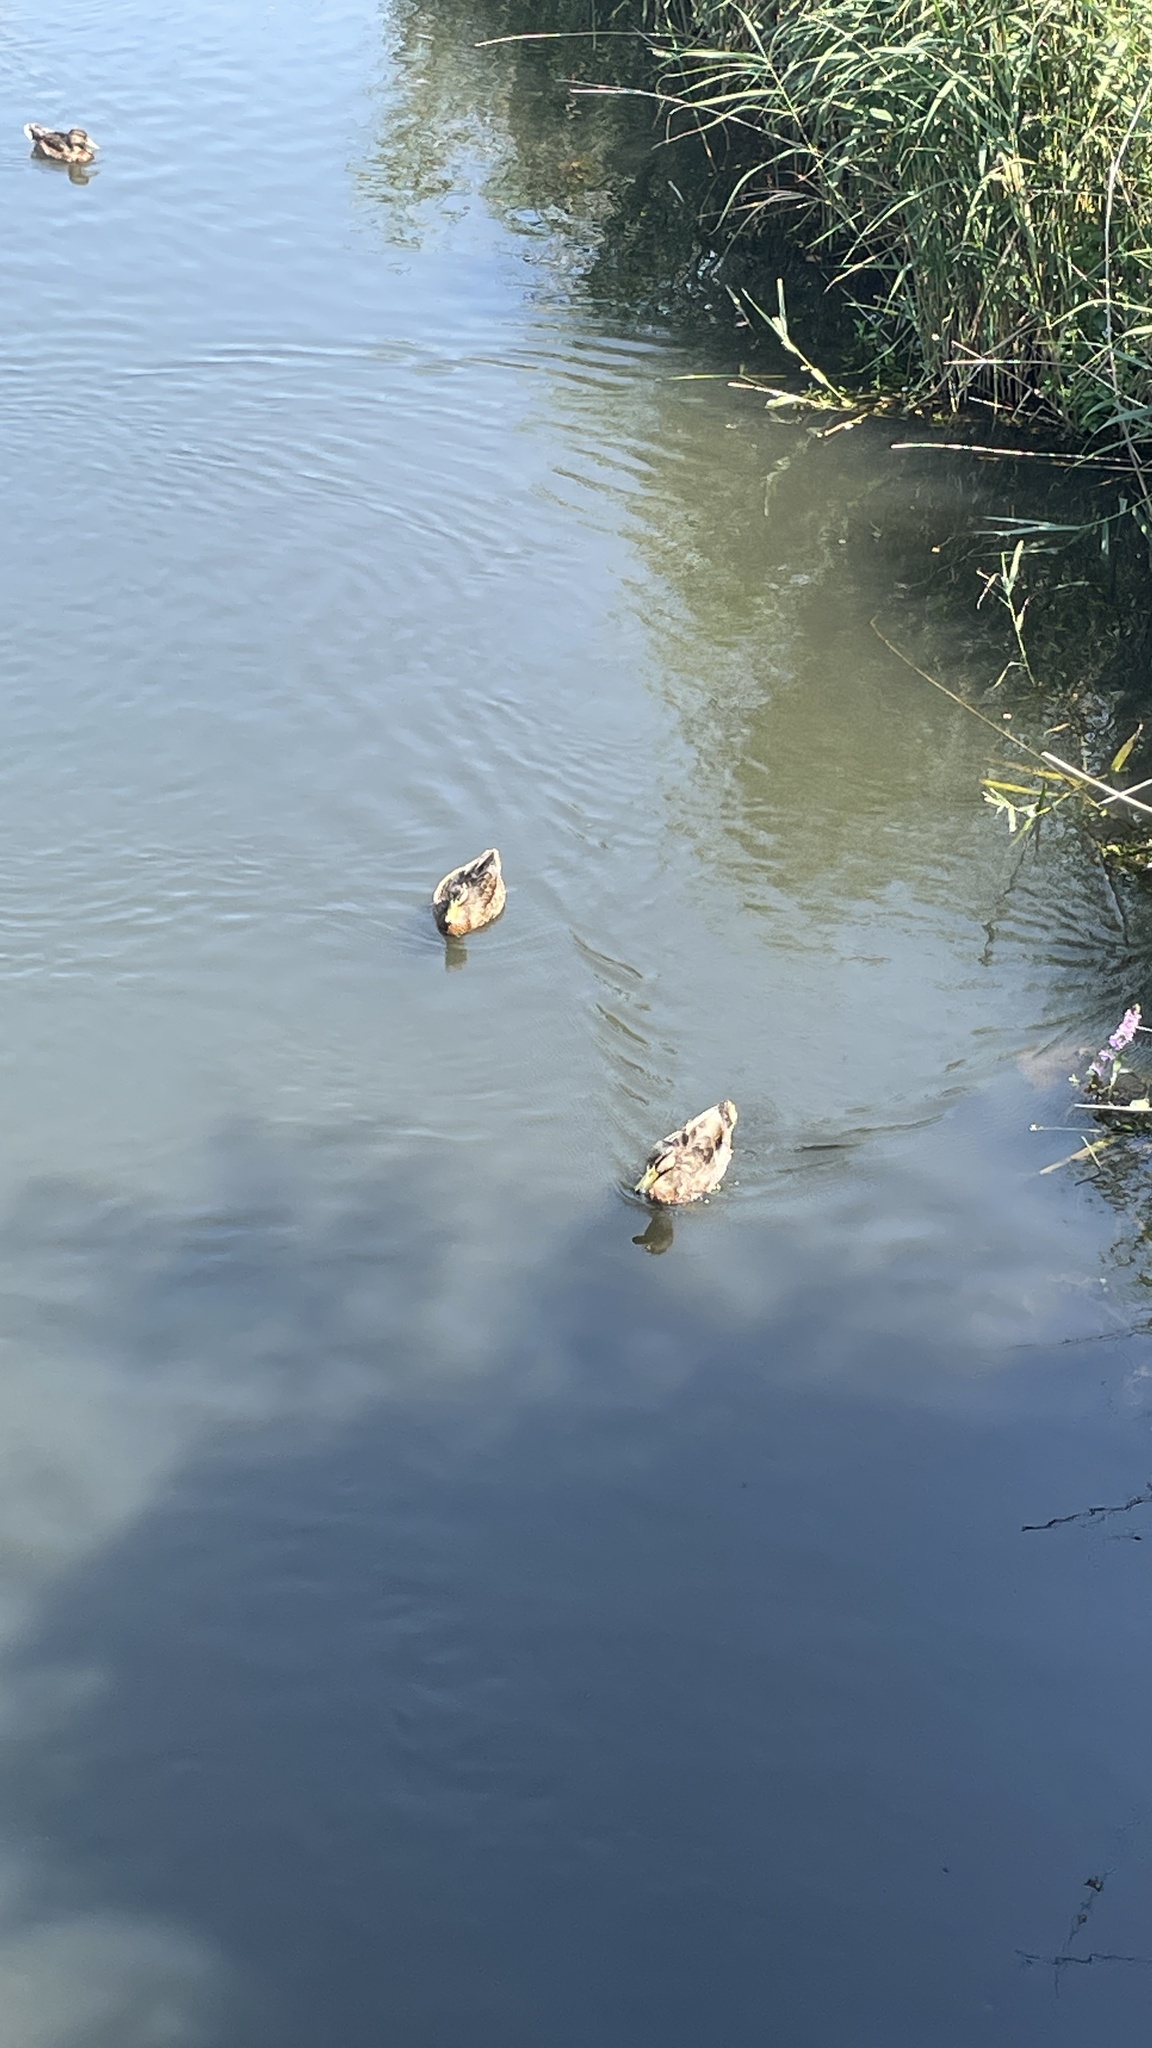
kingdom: Animalia
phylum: Chordata
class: Aves
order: Anseriformes
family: Anatidae
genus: Anas
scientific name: Anas platyrhynchos
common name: Mallard
